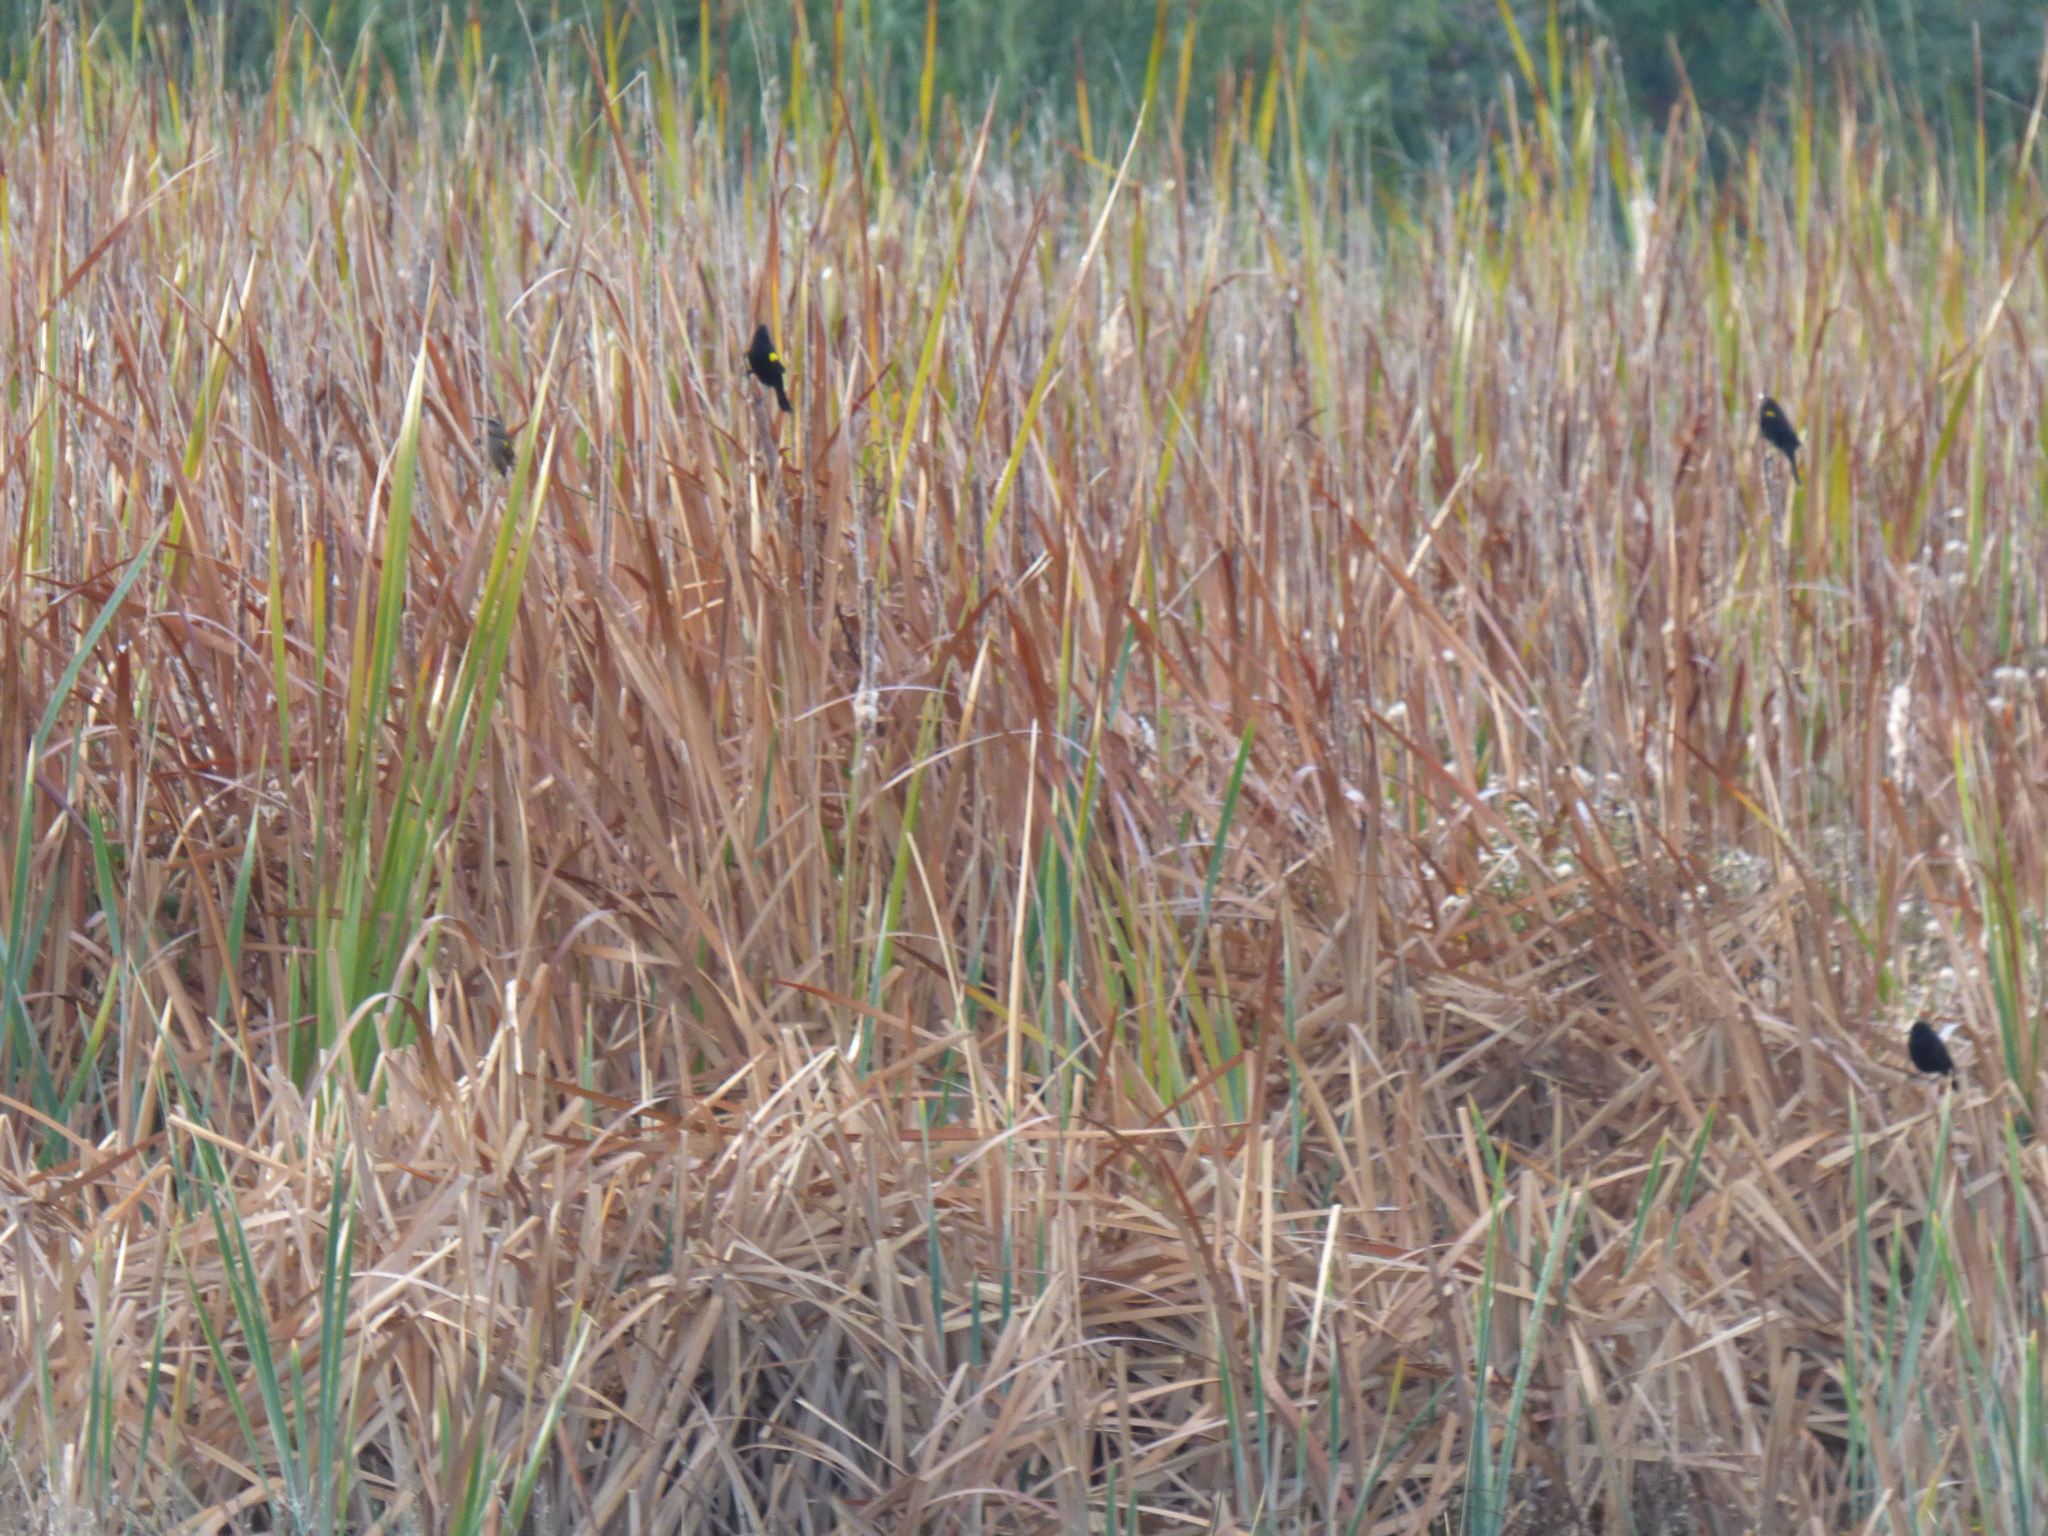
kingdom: Animalia
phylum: Chordata
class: Aves
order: Passeriformes
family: Icteridae
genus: Agelasticus
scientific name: Agelasticus thilius
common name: Yellow-winged blackbird
